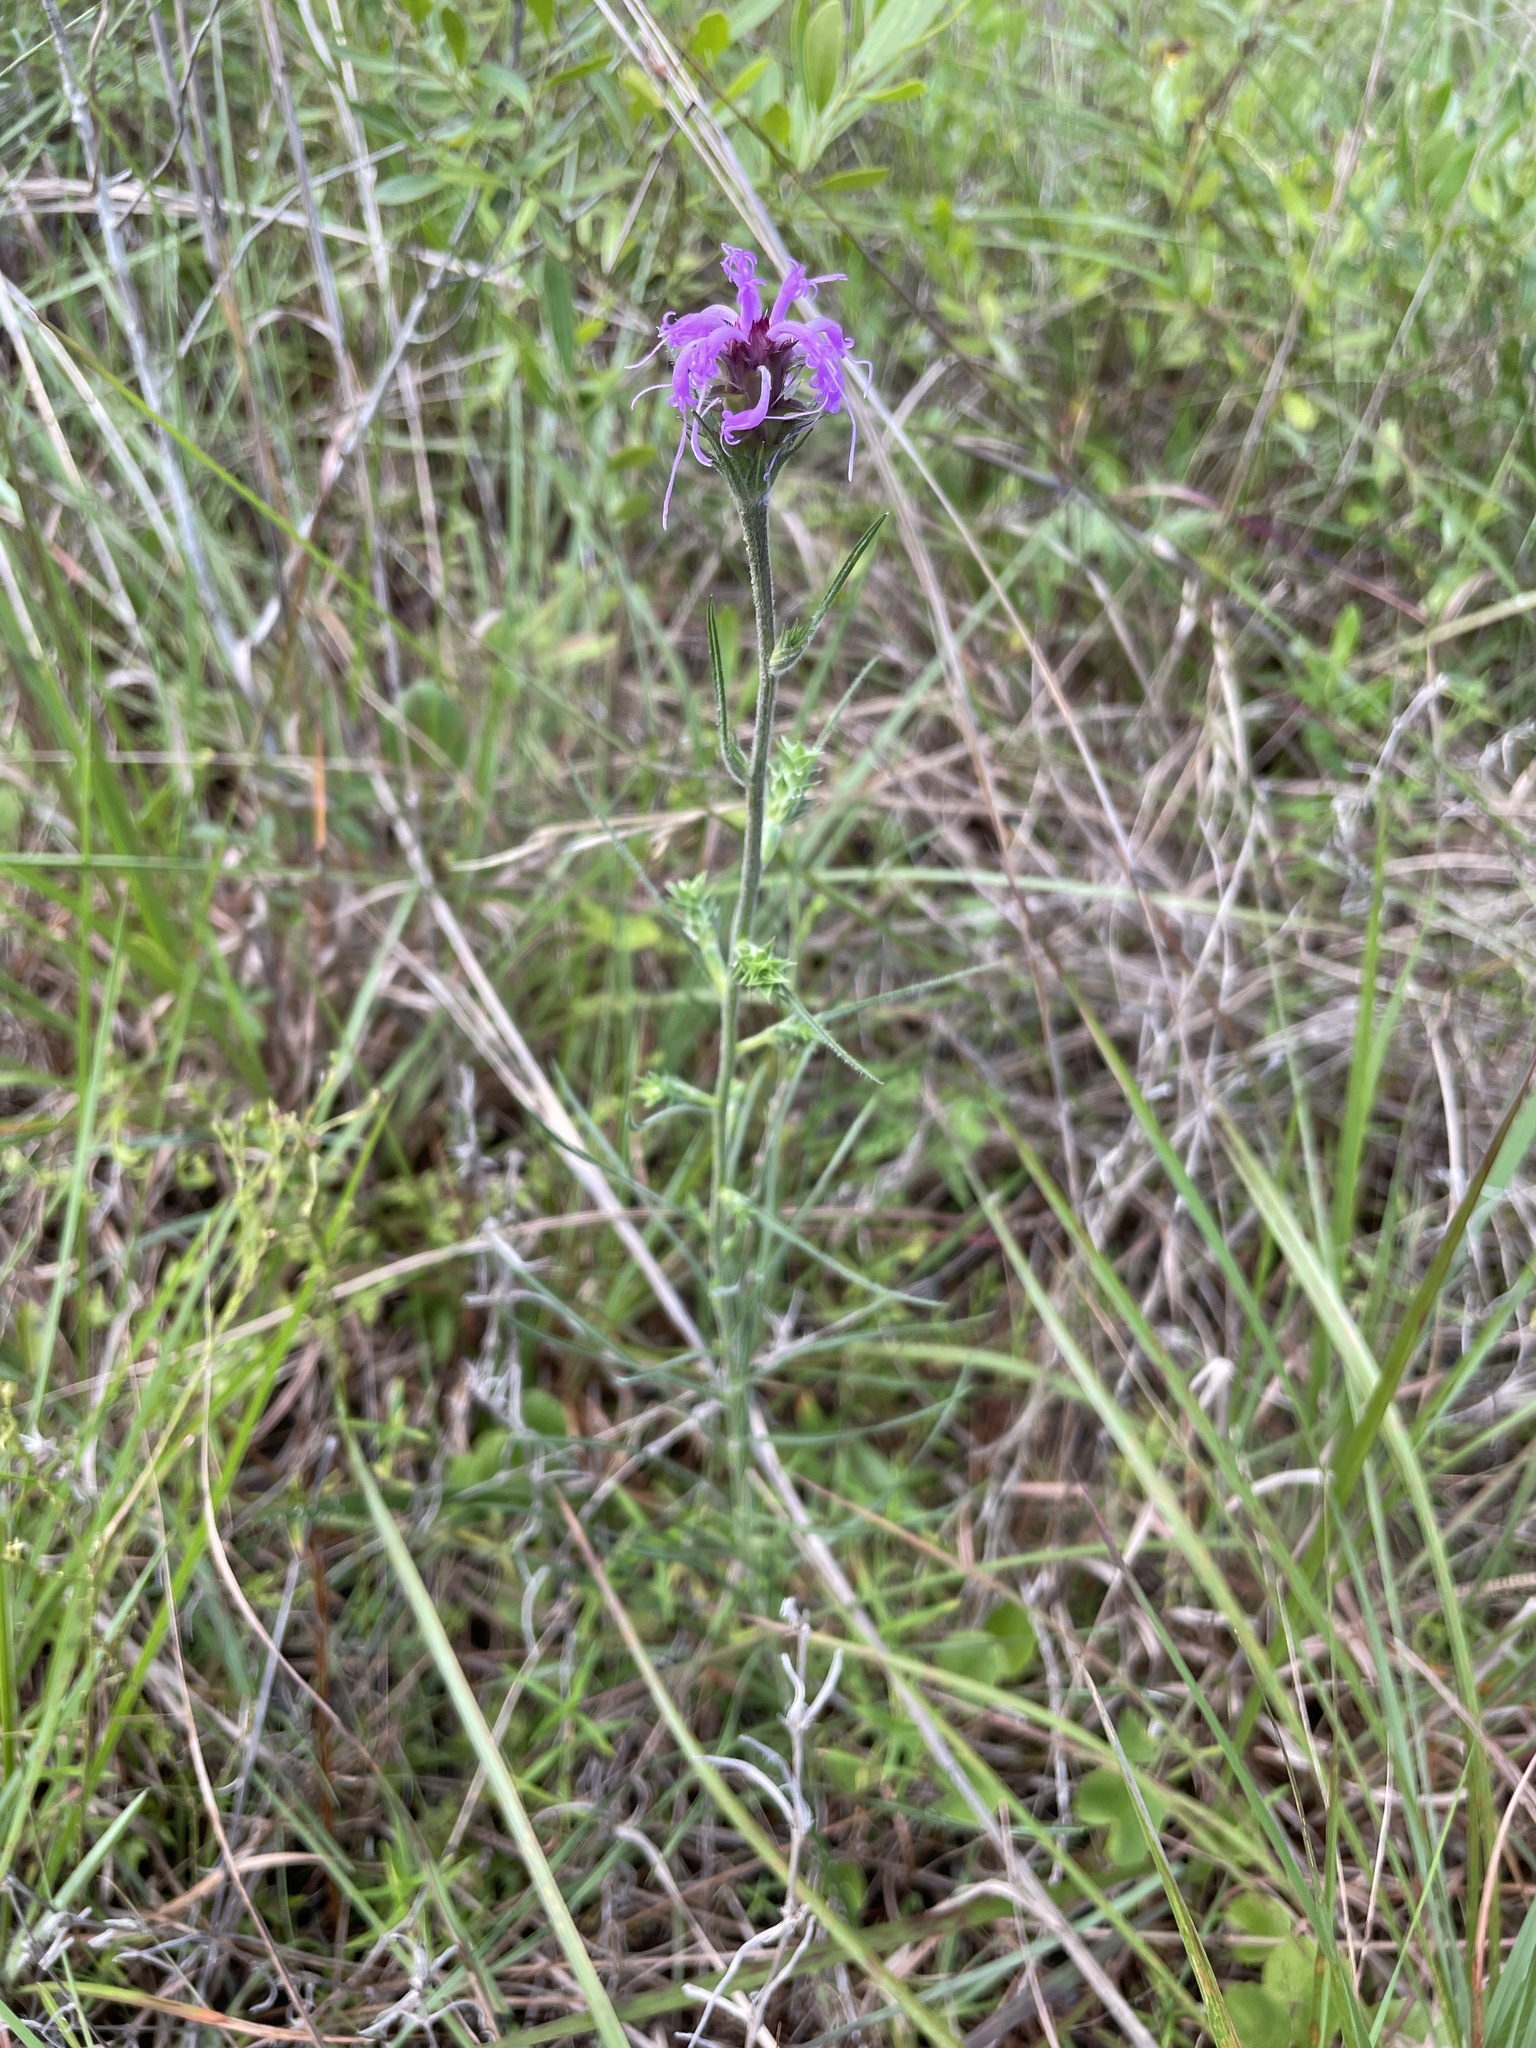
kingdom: Plantae
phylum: Tracheophyta
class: Magnoliopsida
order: Asterales
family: Asteraceae
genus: Liatris
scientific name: Liatris squarrosa
